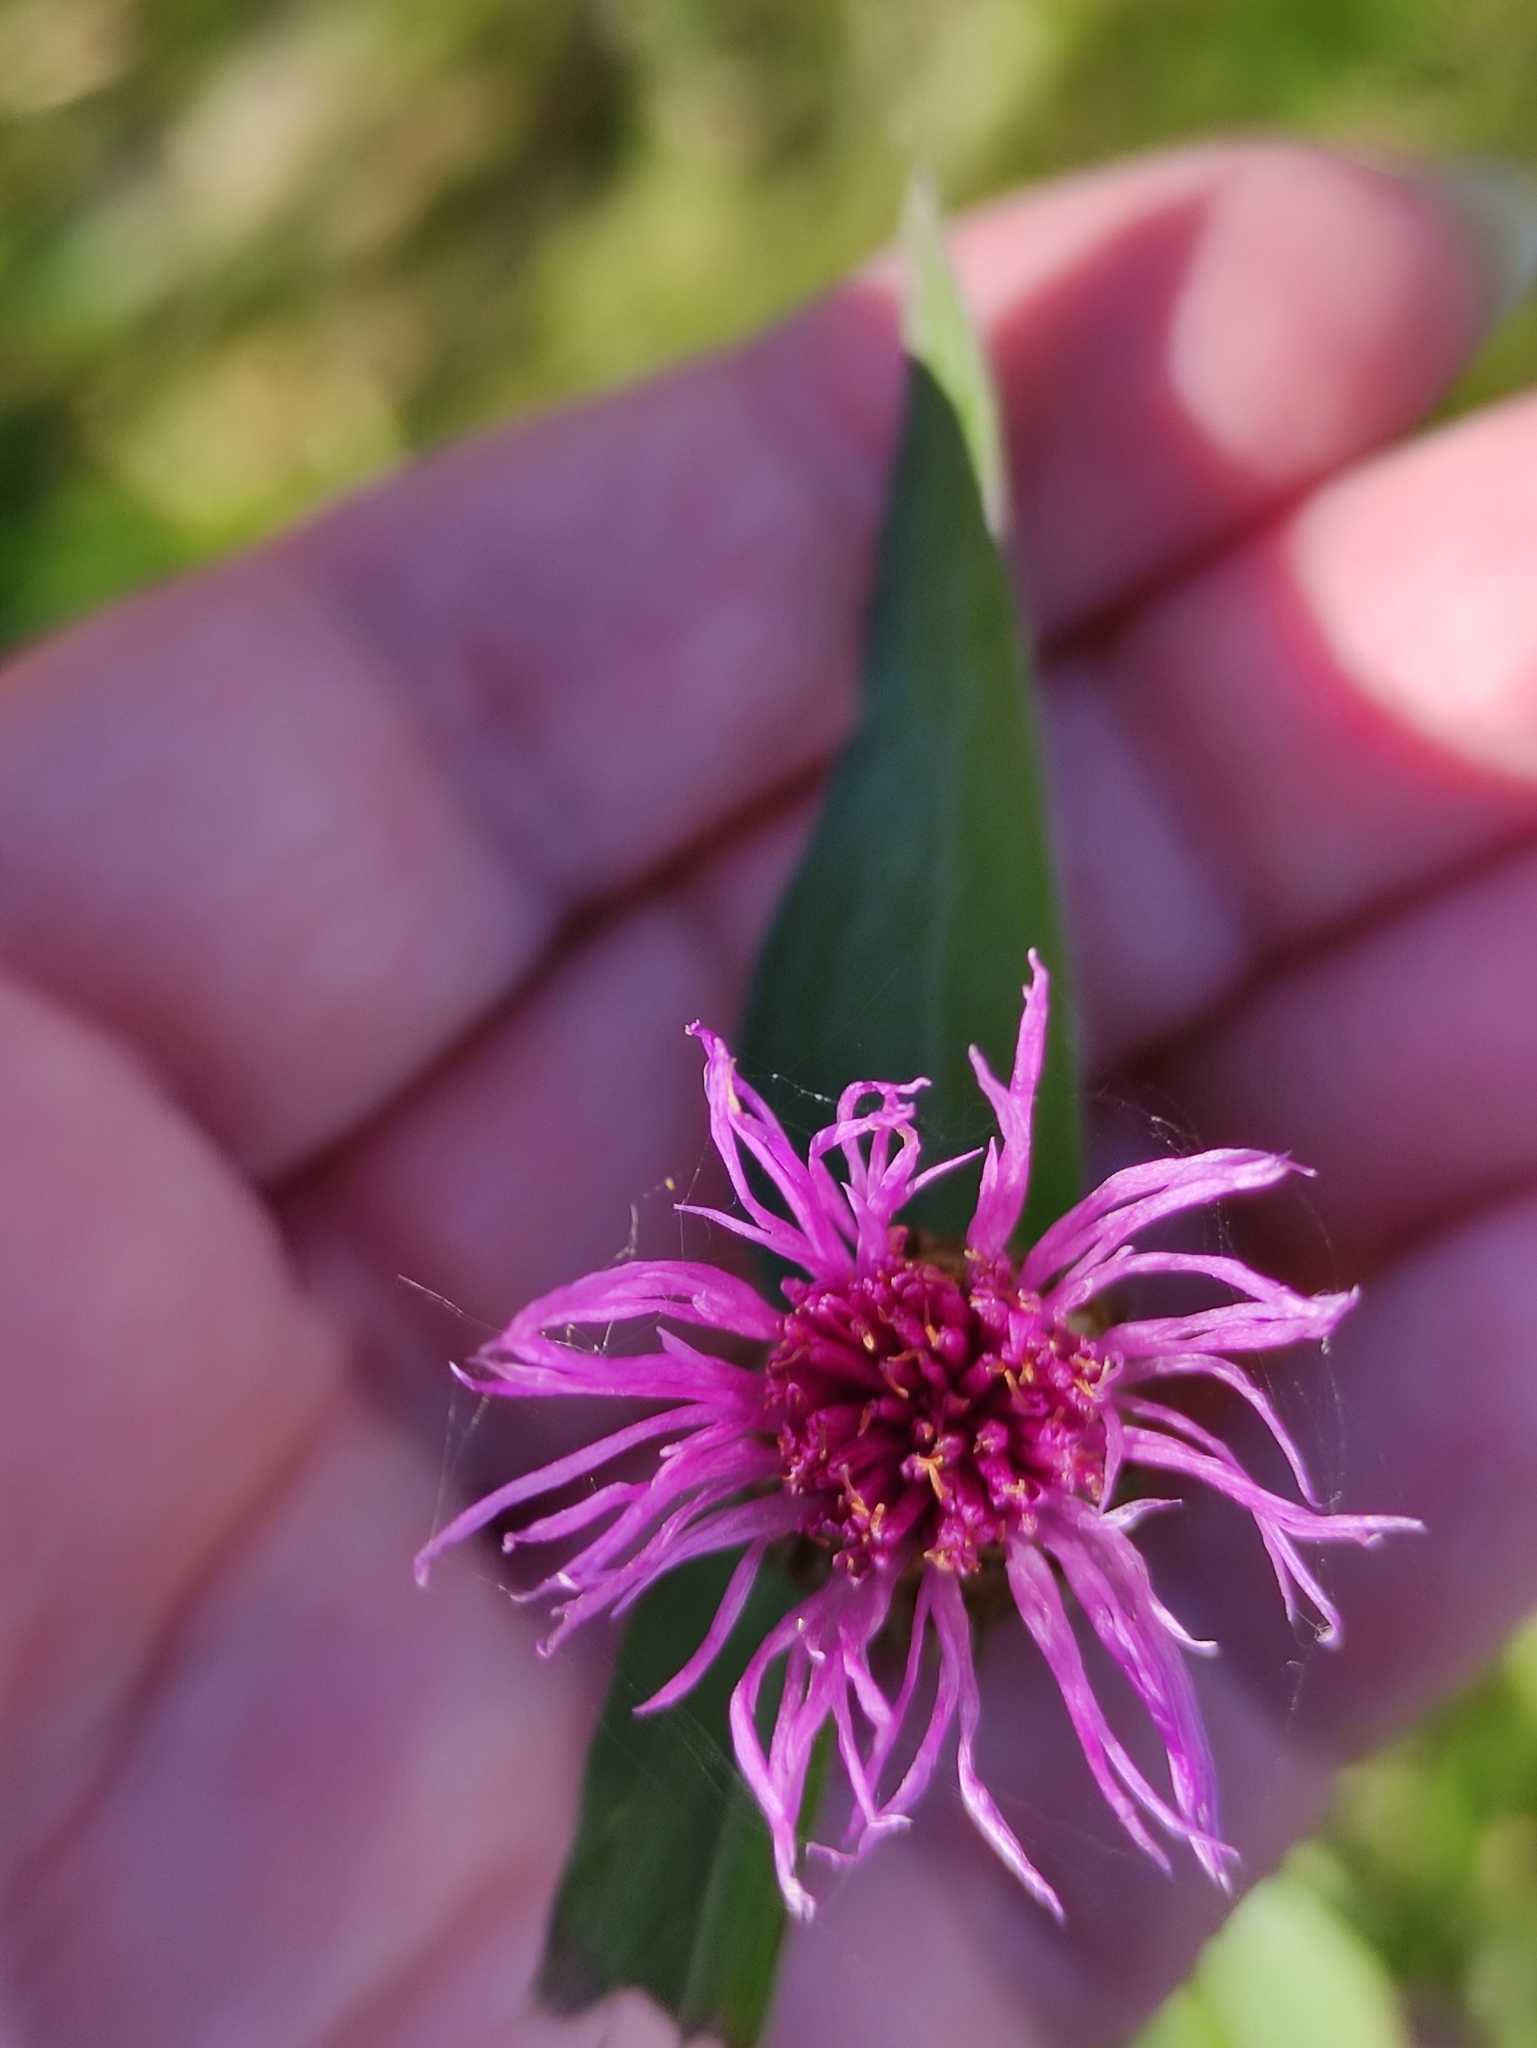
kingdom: Plantae
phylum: Tracheophyta
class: Magnoliopsida
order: Asterales
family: Asteraceae
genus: Centaurea
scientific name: Centaurea jacea
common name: Brown knapweed
